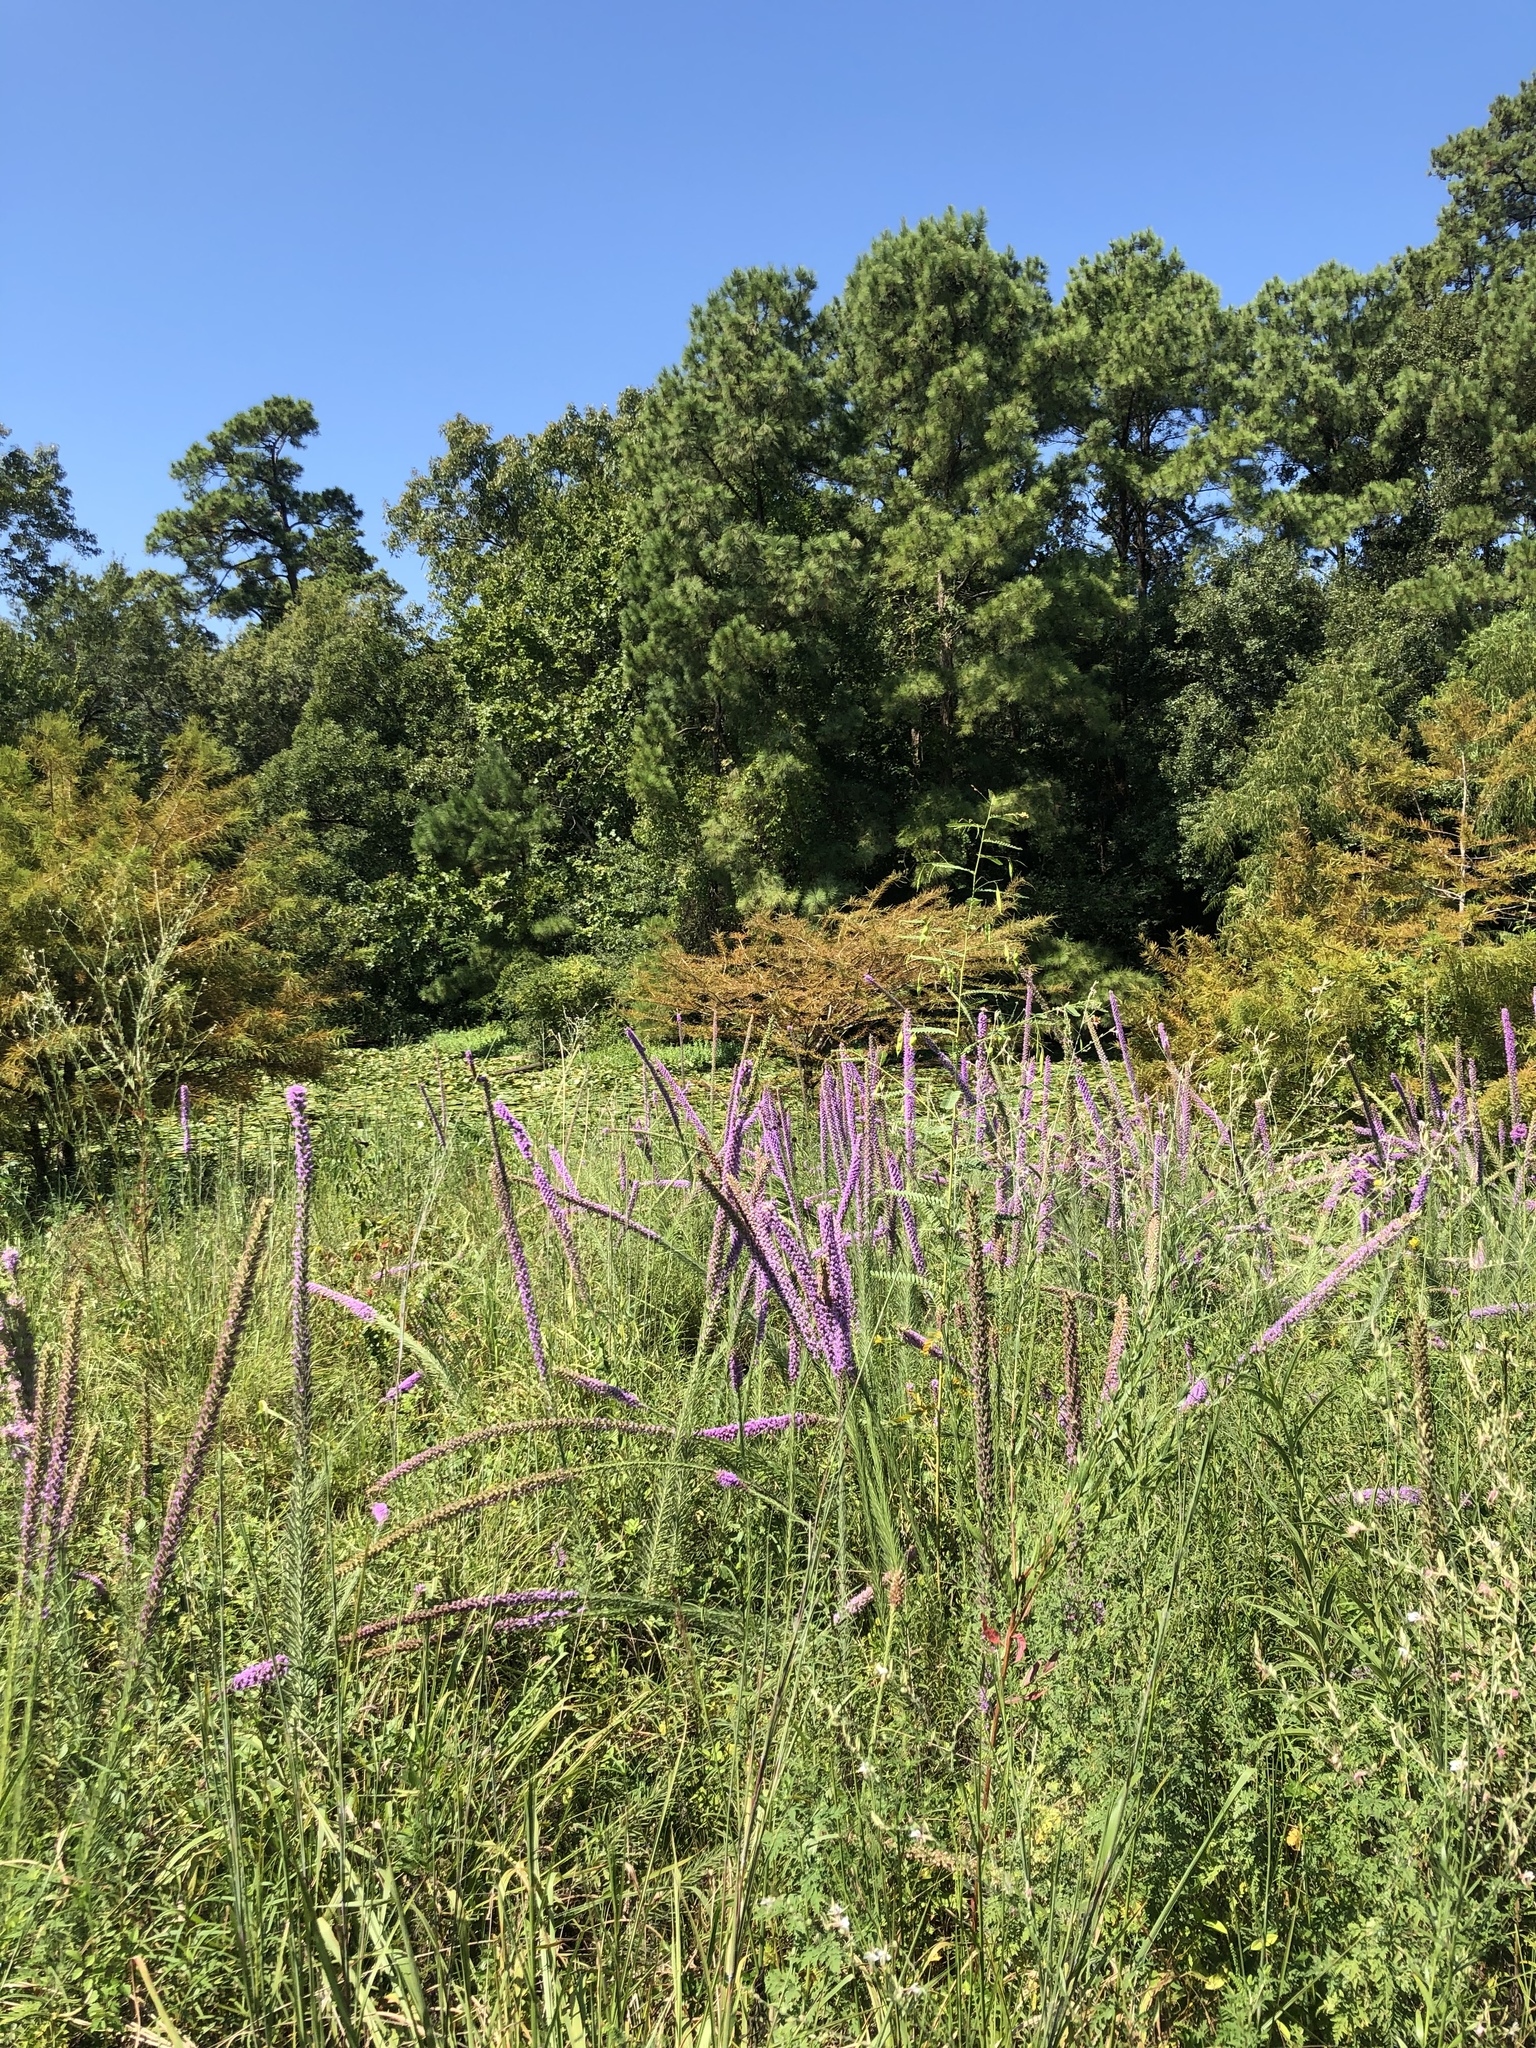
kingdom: Plantae
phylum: Tracheophyta
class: Magnoliopsida
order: Asterales
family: Asteraceae
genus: Liatris
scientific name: Liatris pycnostachya
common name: Cattail gayfeather
